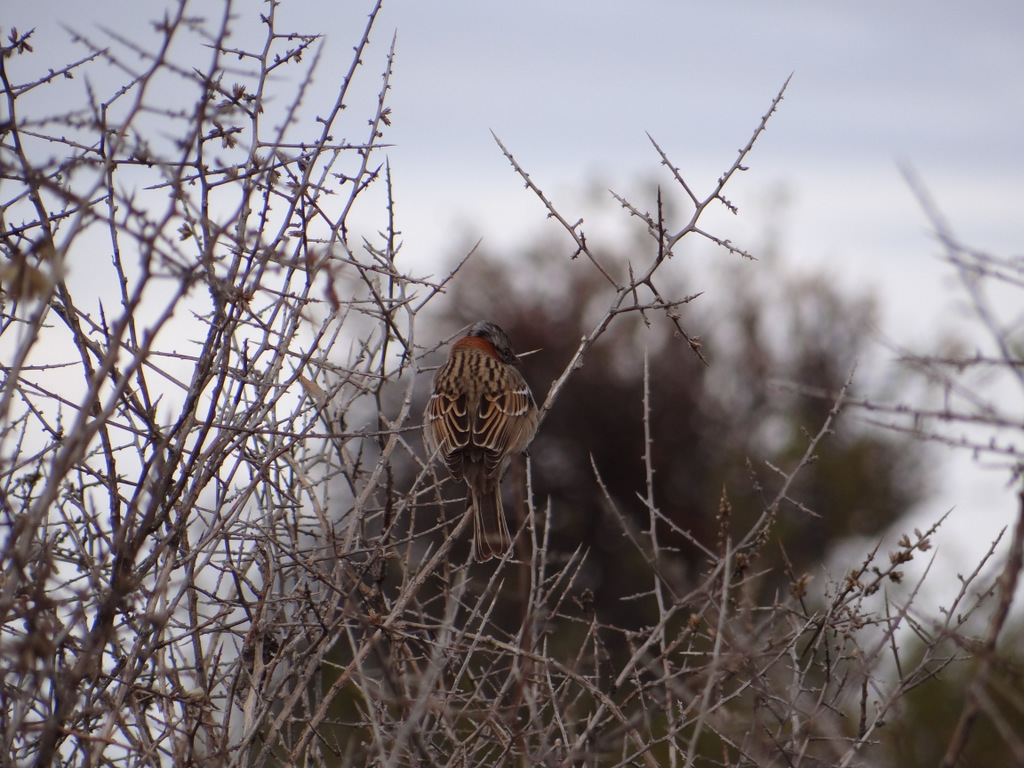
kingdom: Animalia
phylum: Chordata
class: Aves
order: Passeriformes
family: Passerellidae
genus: Zonotrichia
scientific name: Zonotrichia capensis
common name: Rufous-collared sparrow
